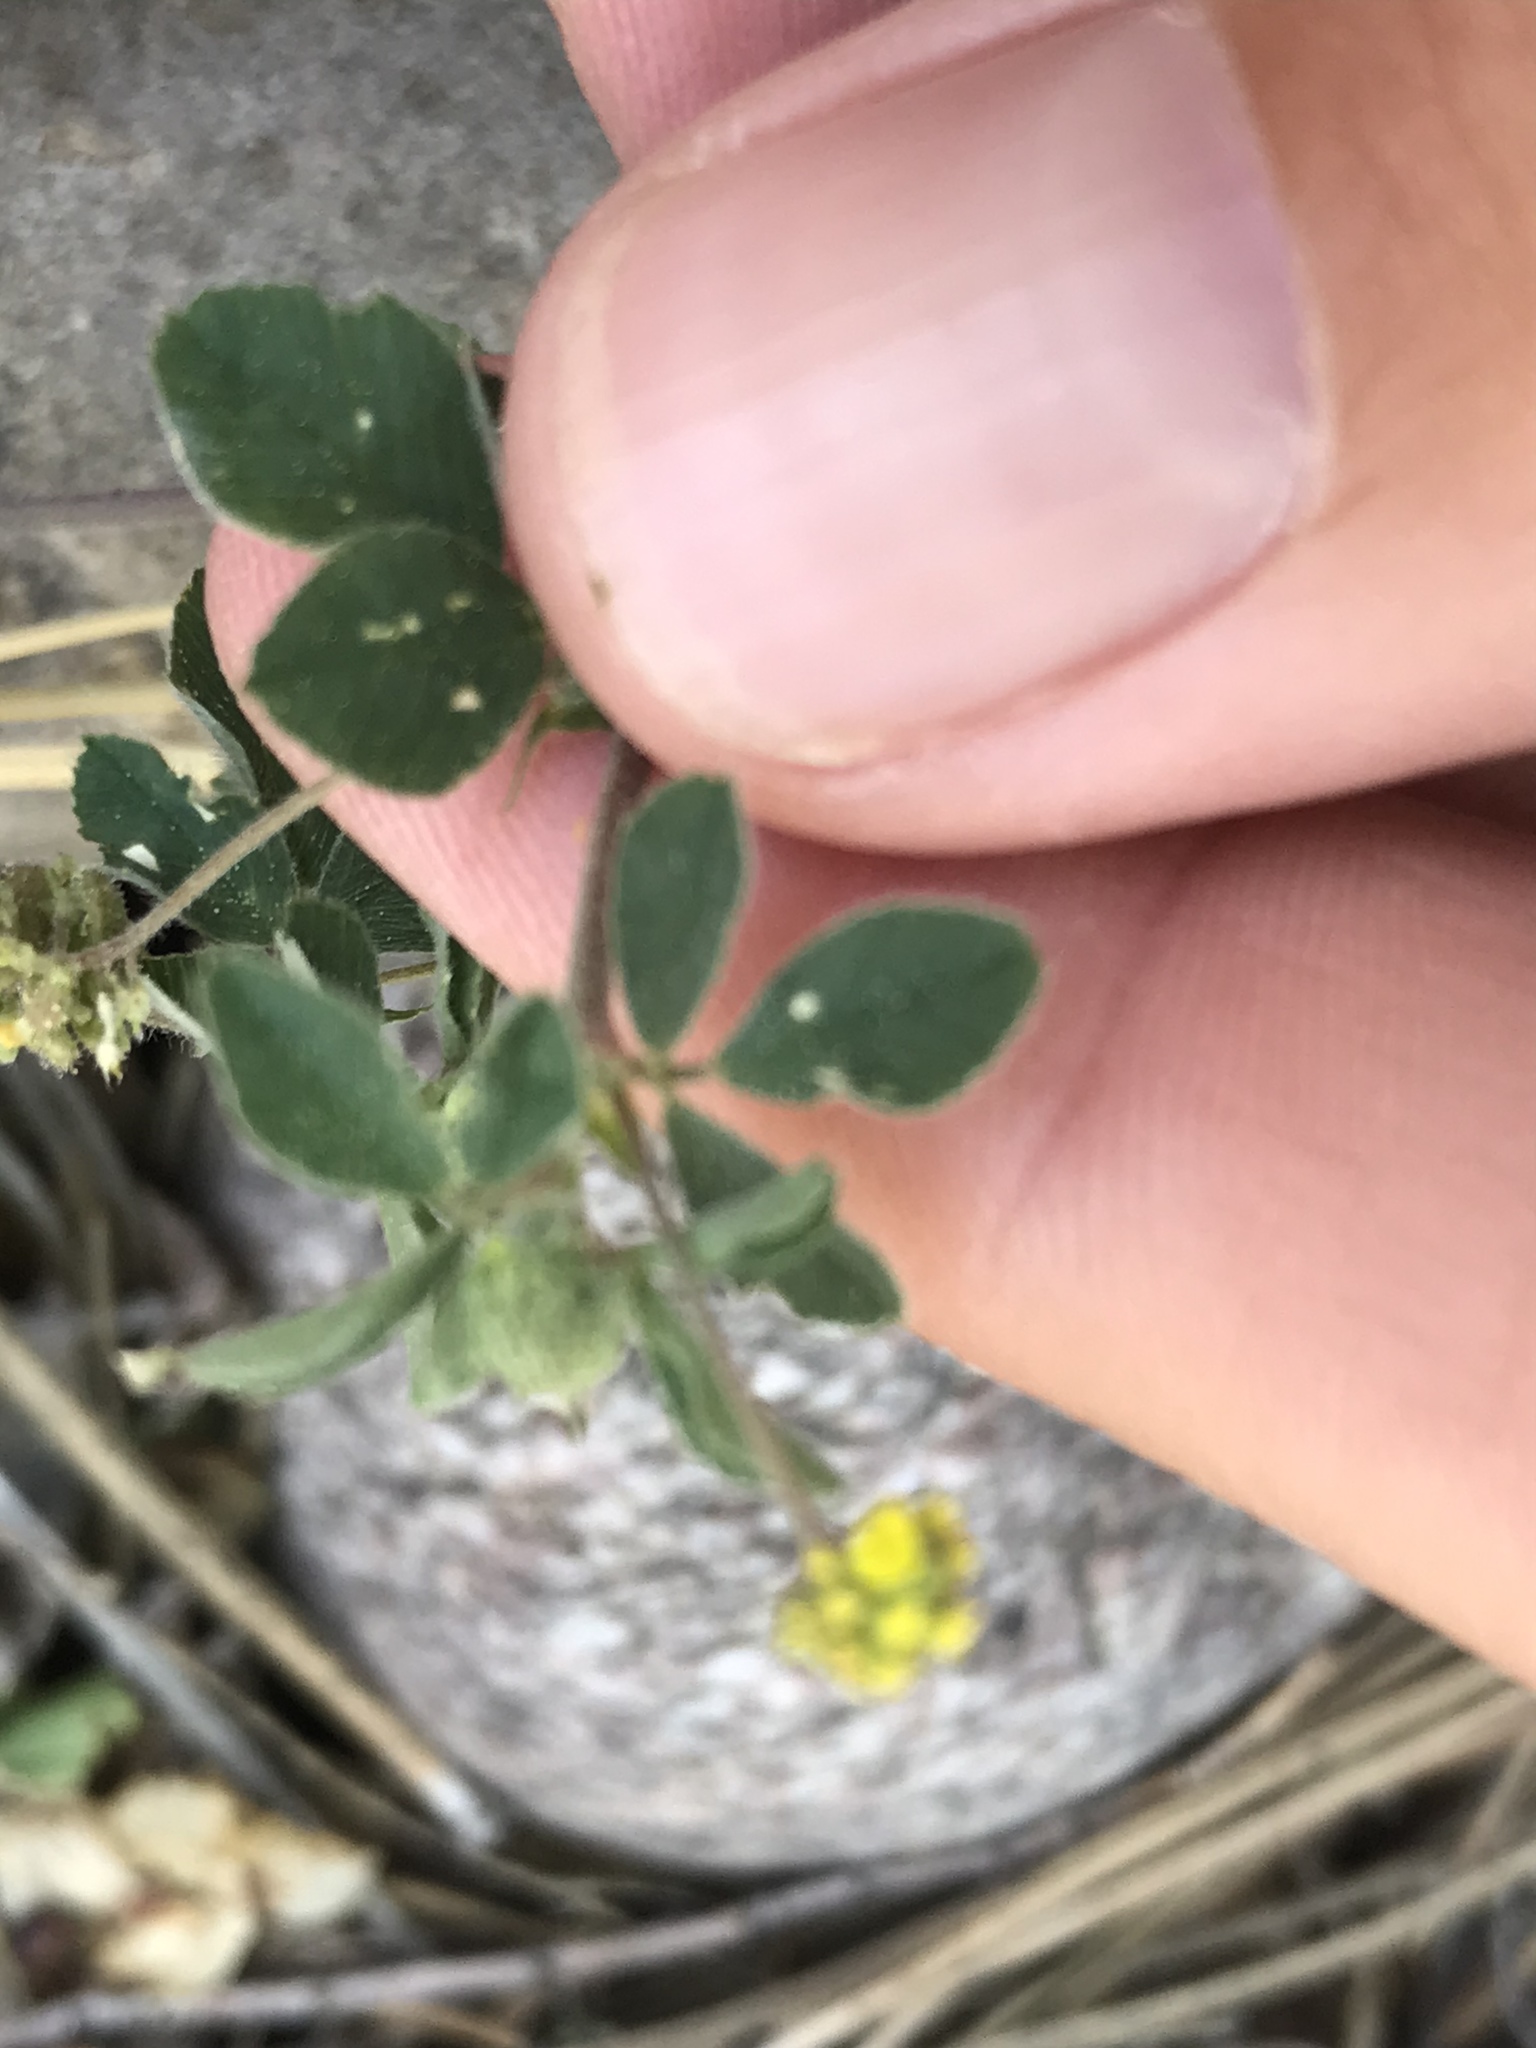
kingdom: Plantae
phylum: Tracheophyta
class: Magnoliopsida
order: Fabales
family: Fabaceae
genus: Medicago
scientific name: Medicago lupulina
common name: Black medick
